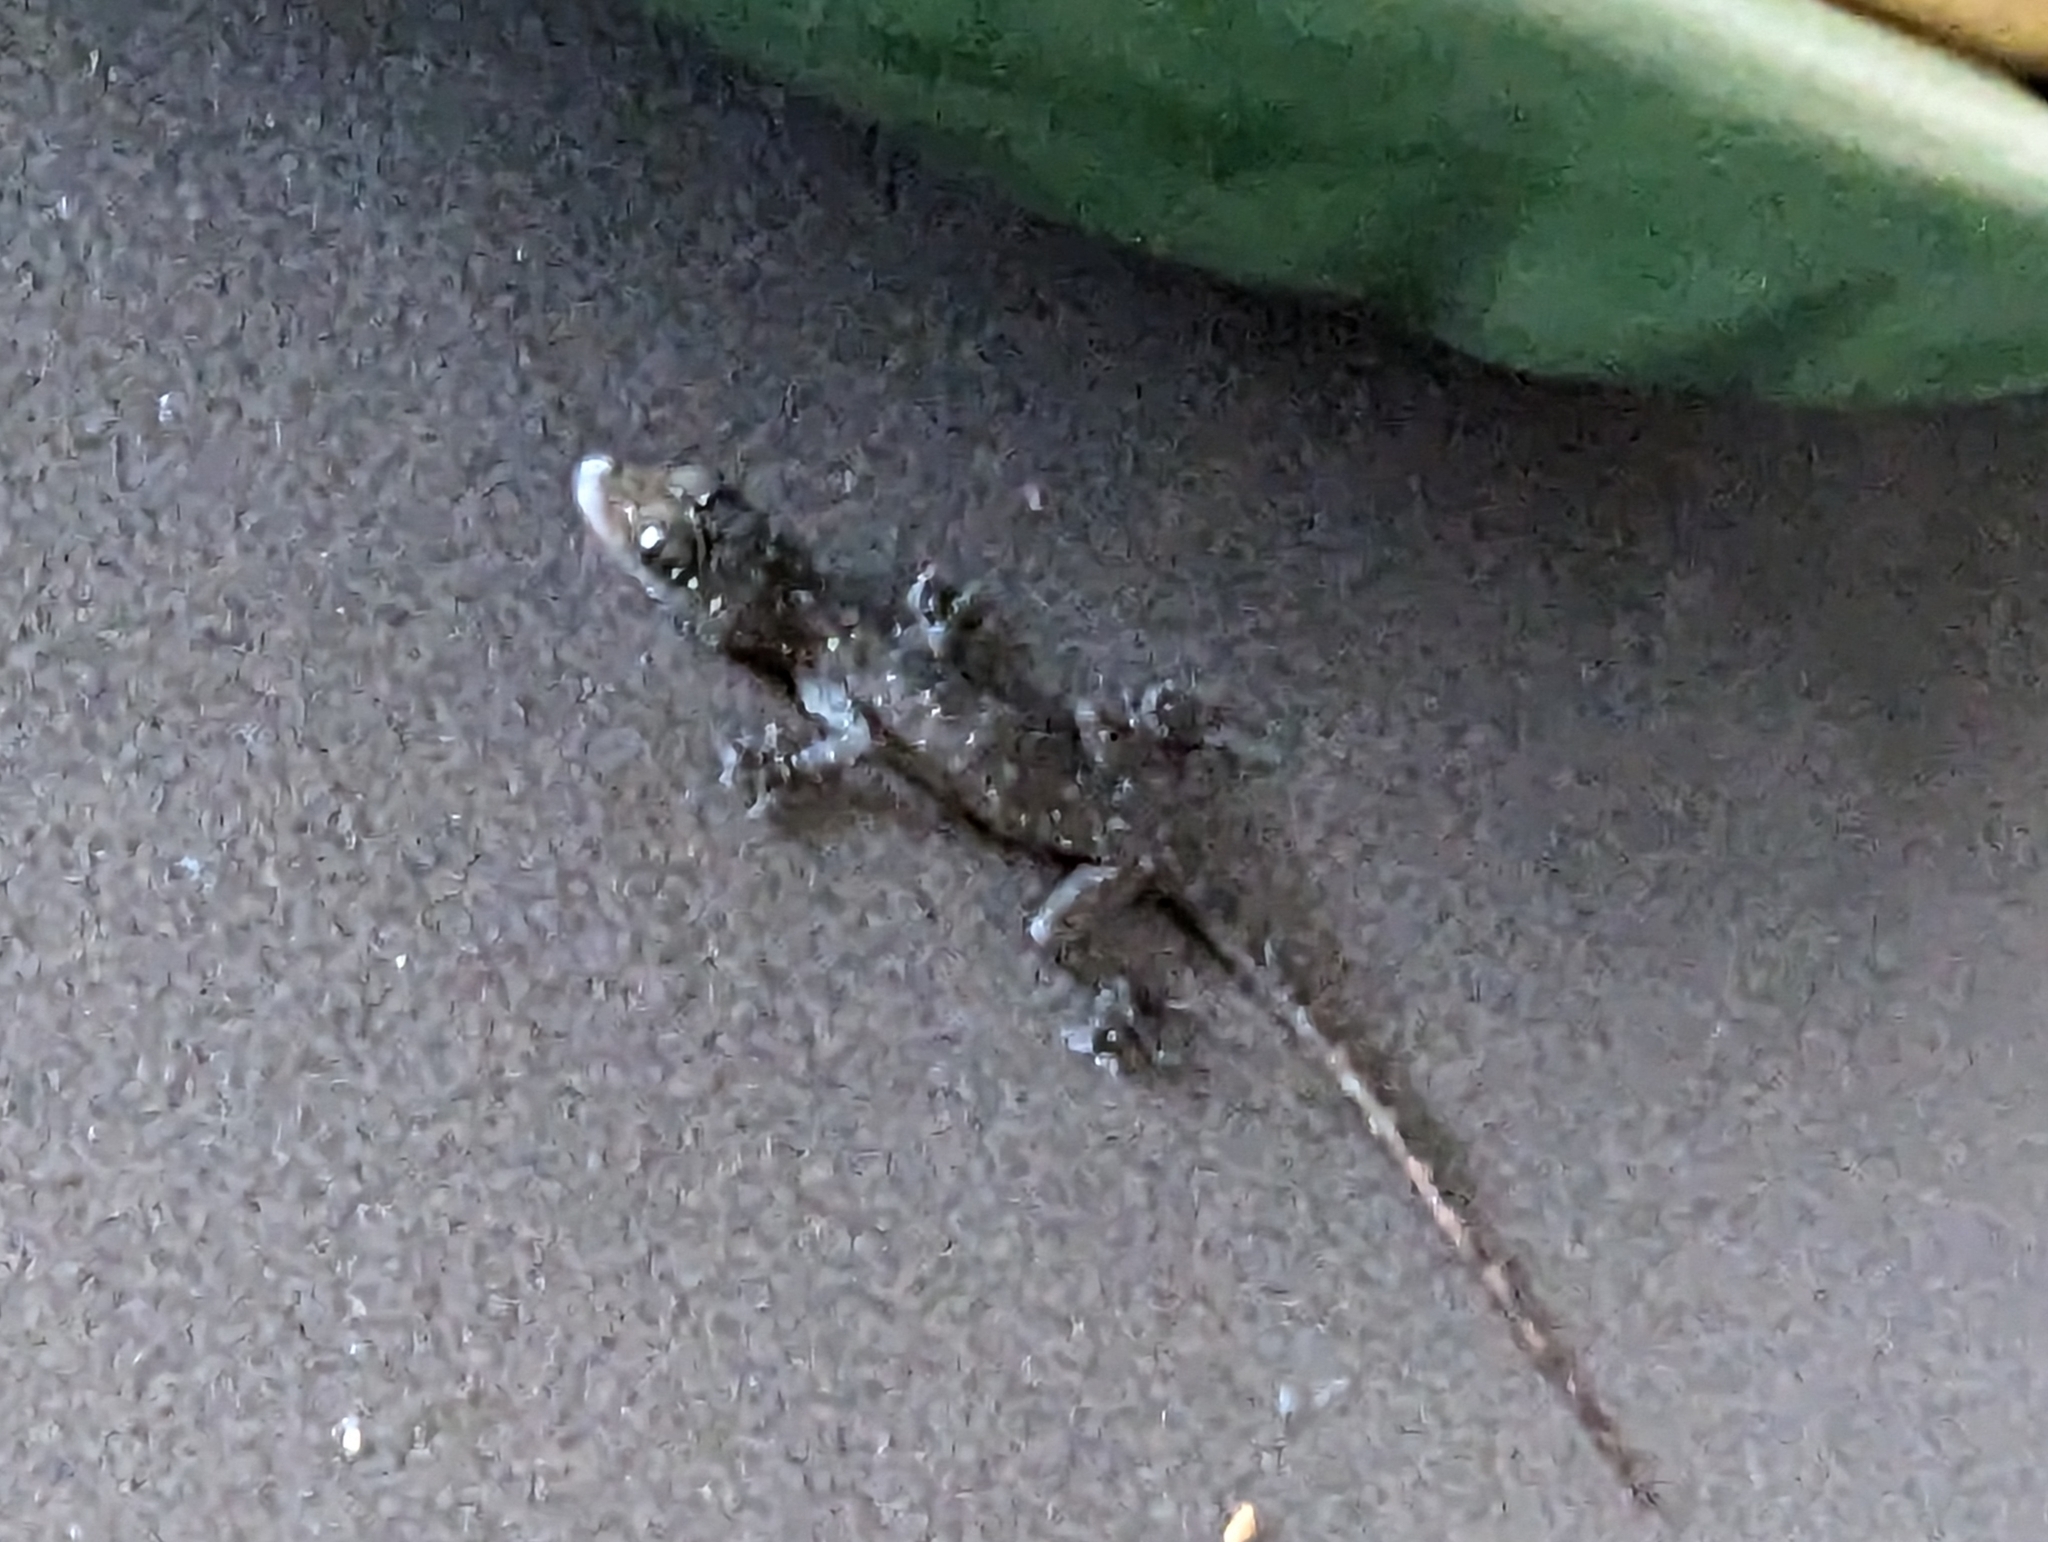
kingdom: Animalia
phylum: Chordata
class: Squamata
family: Gekkonidae
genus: Hemidactylus
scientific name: Hemidactylus garnotii
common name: Indo-pacific gecko
